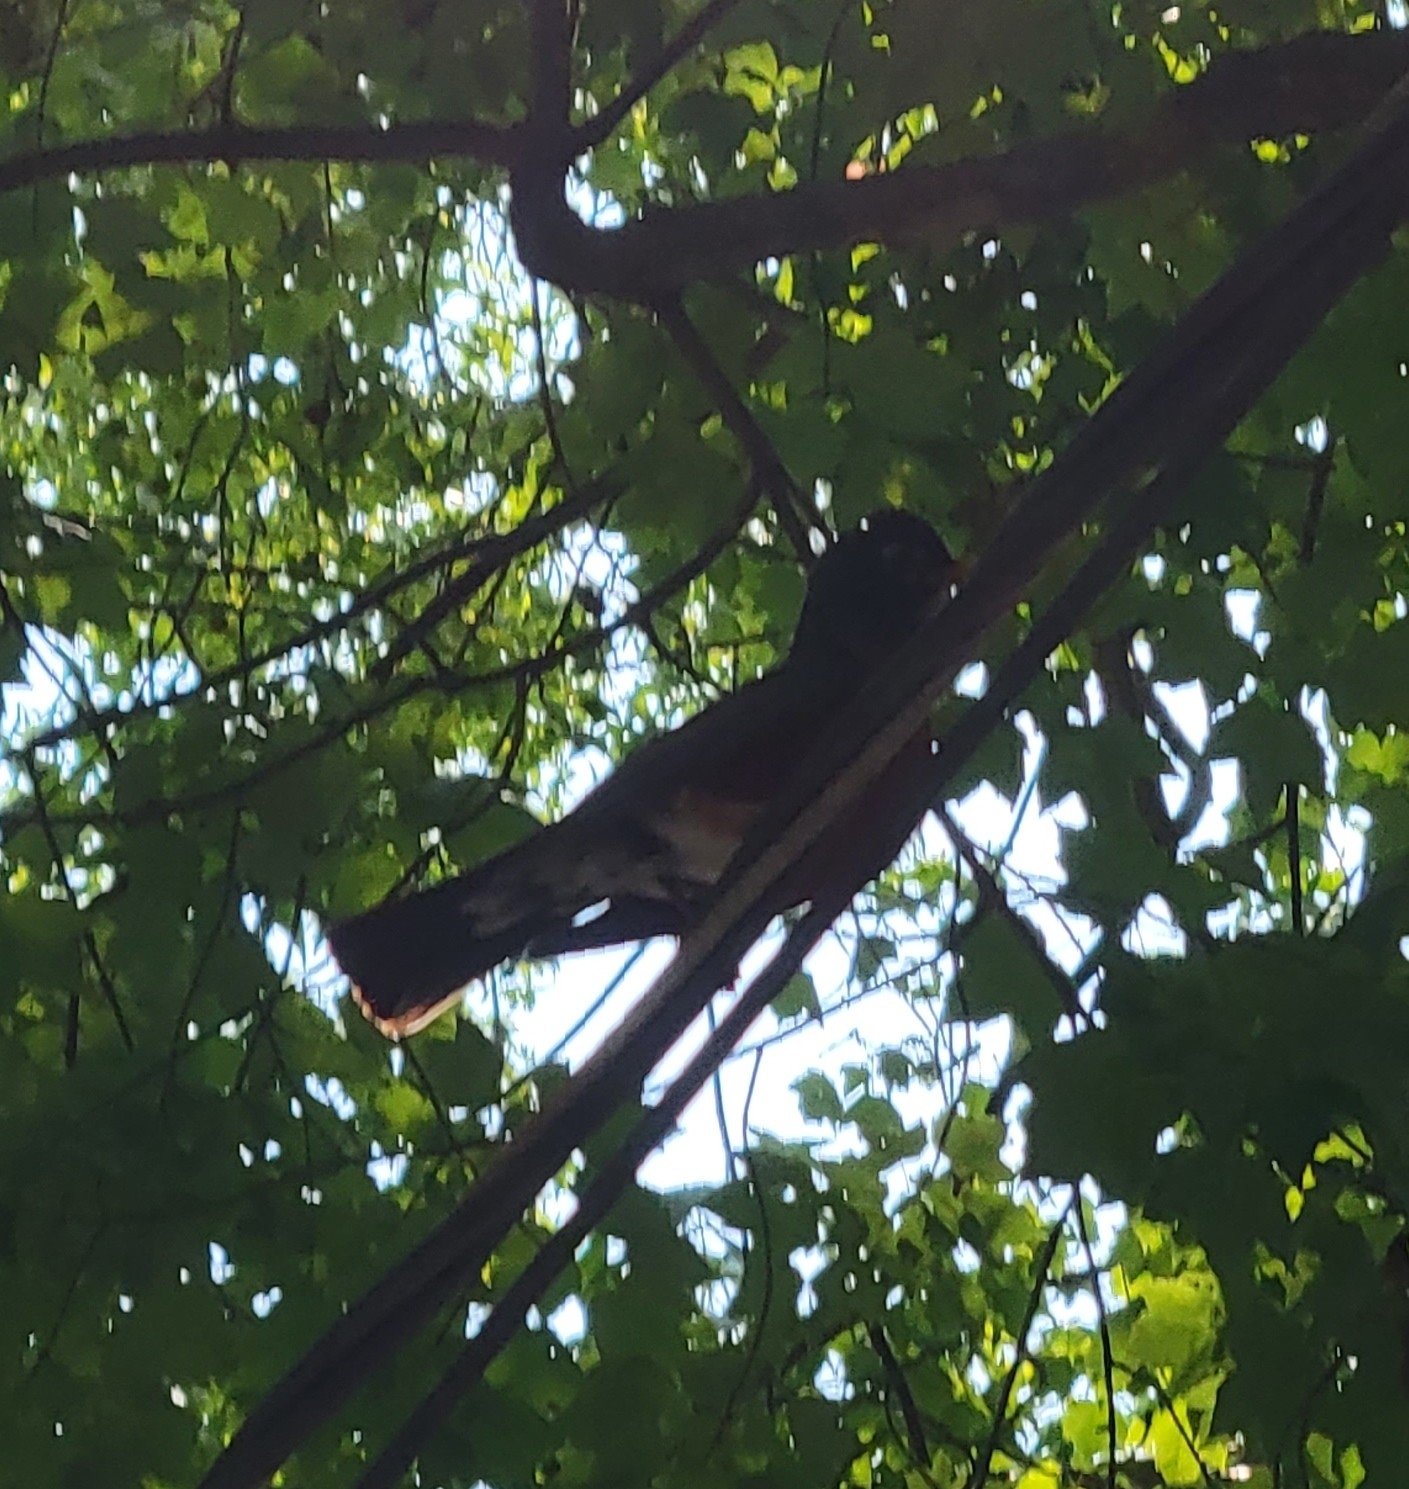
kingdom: Animalia
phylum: Chordata
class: Aves
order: Passeriformes
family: Turdidae
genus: Turdus
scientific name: Turdus migratorius
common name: American robin
